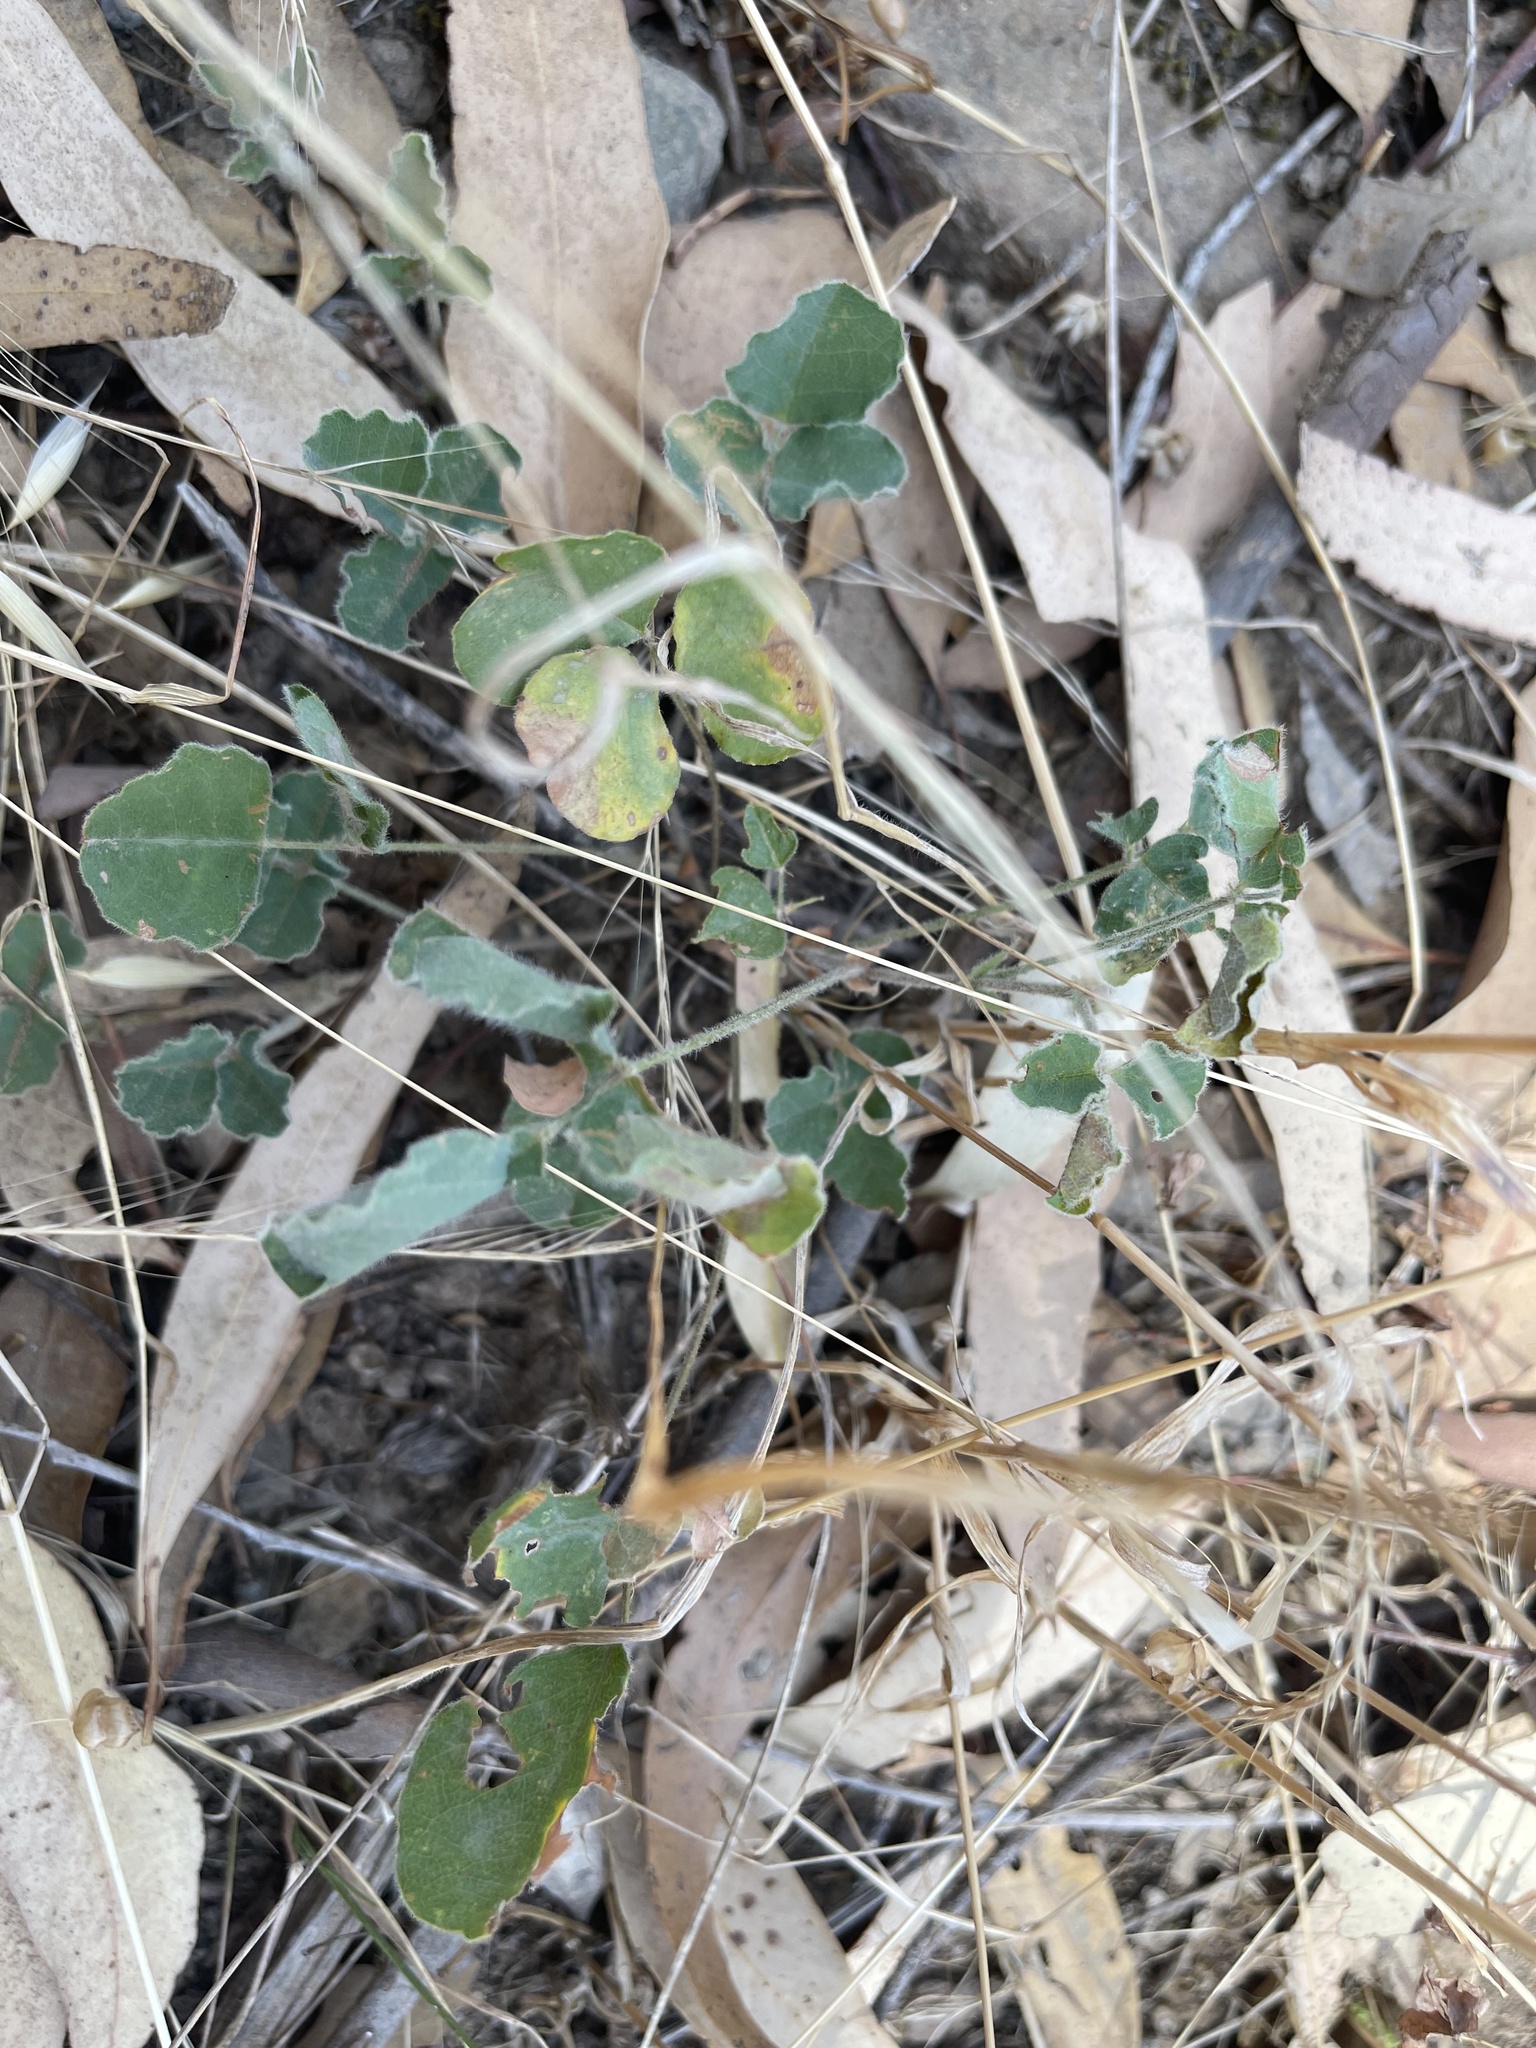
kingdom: Plantae
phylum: Tracheophyta
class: Magnoliopsida
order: Fabales
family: Fabaceae
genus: Kennedia
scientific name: Kennedia prostrata
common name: Running-postman
